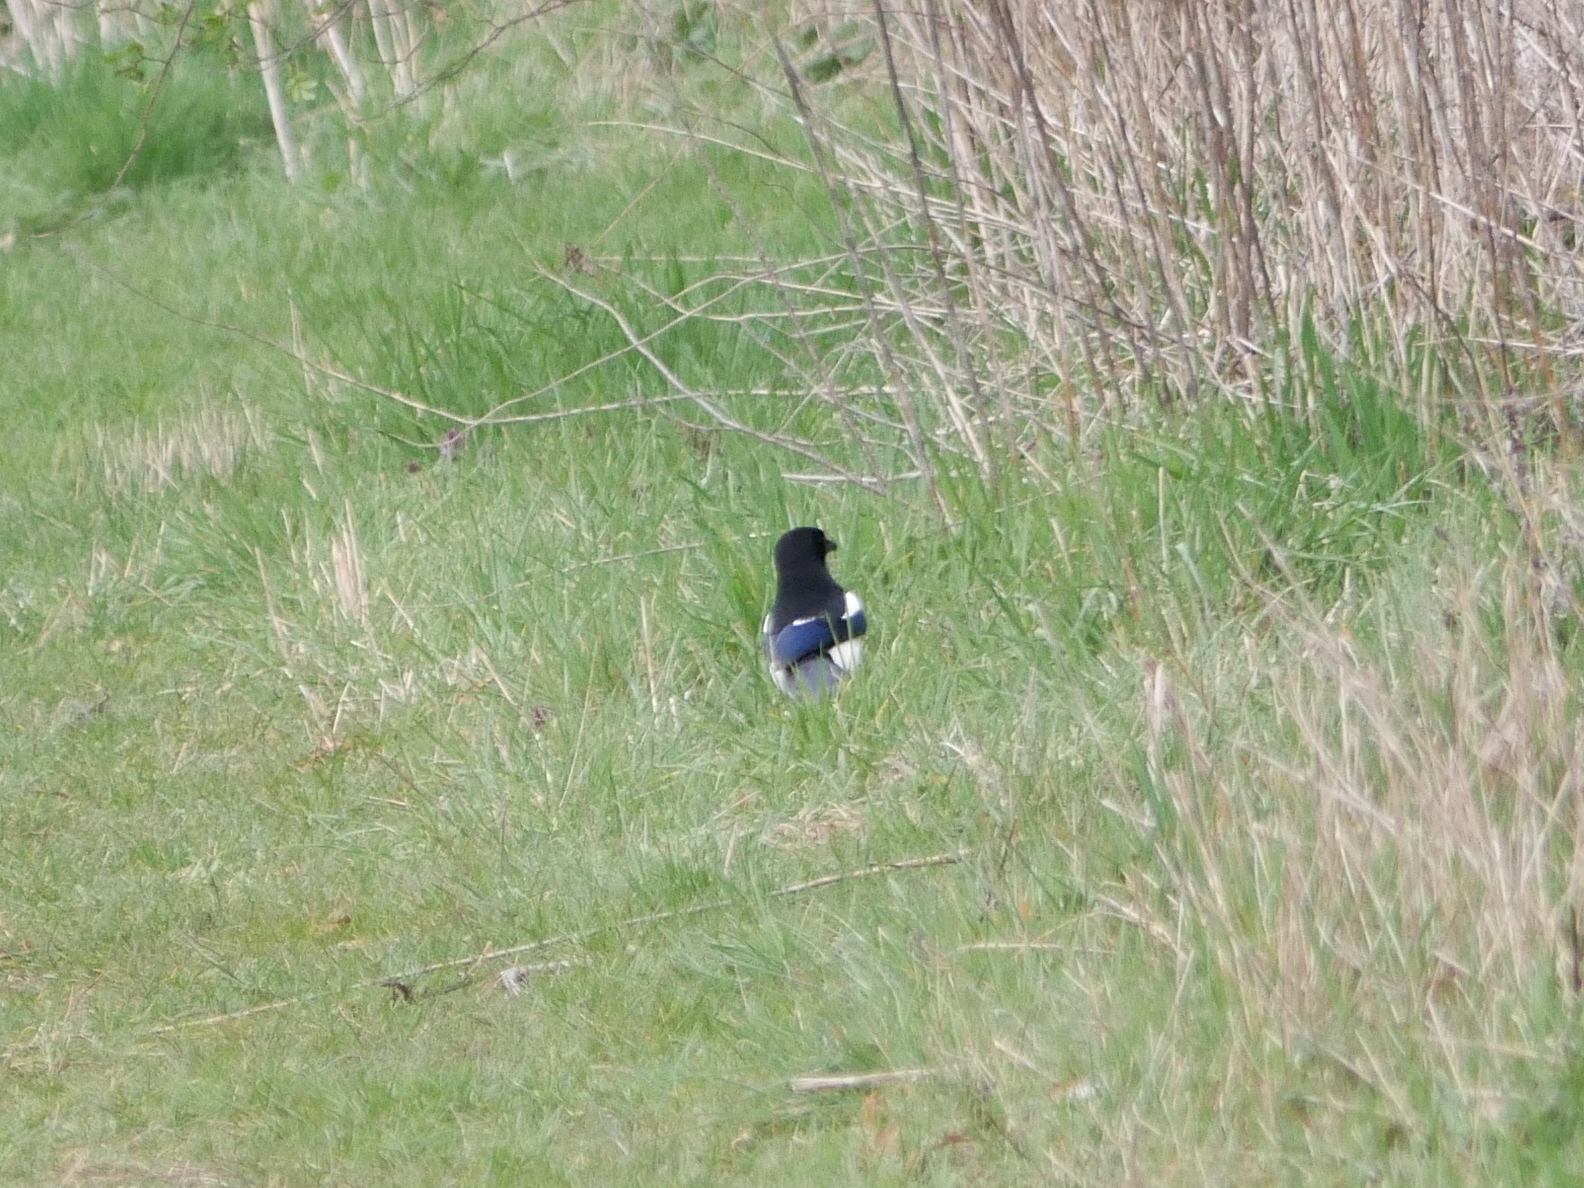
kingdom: Animalia
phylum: Chordata
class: Aves
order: Passeriformes
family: Corvidae
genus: Pica
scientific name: Pica pica
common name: Eurasian magpie
